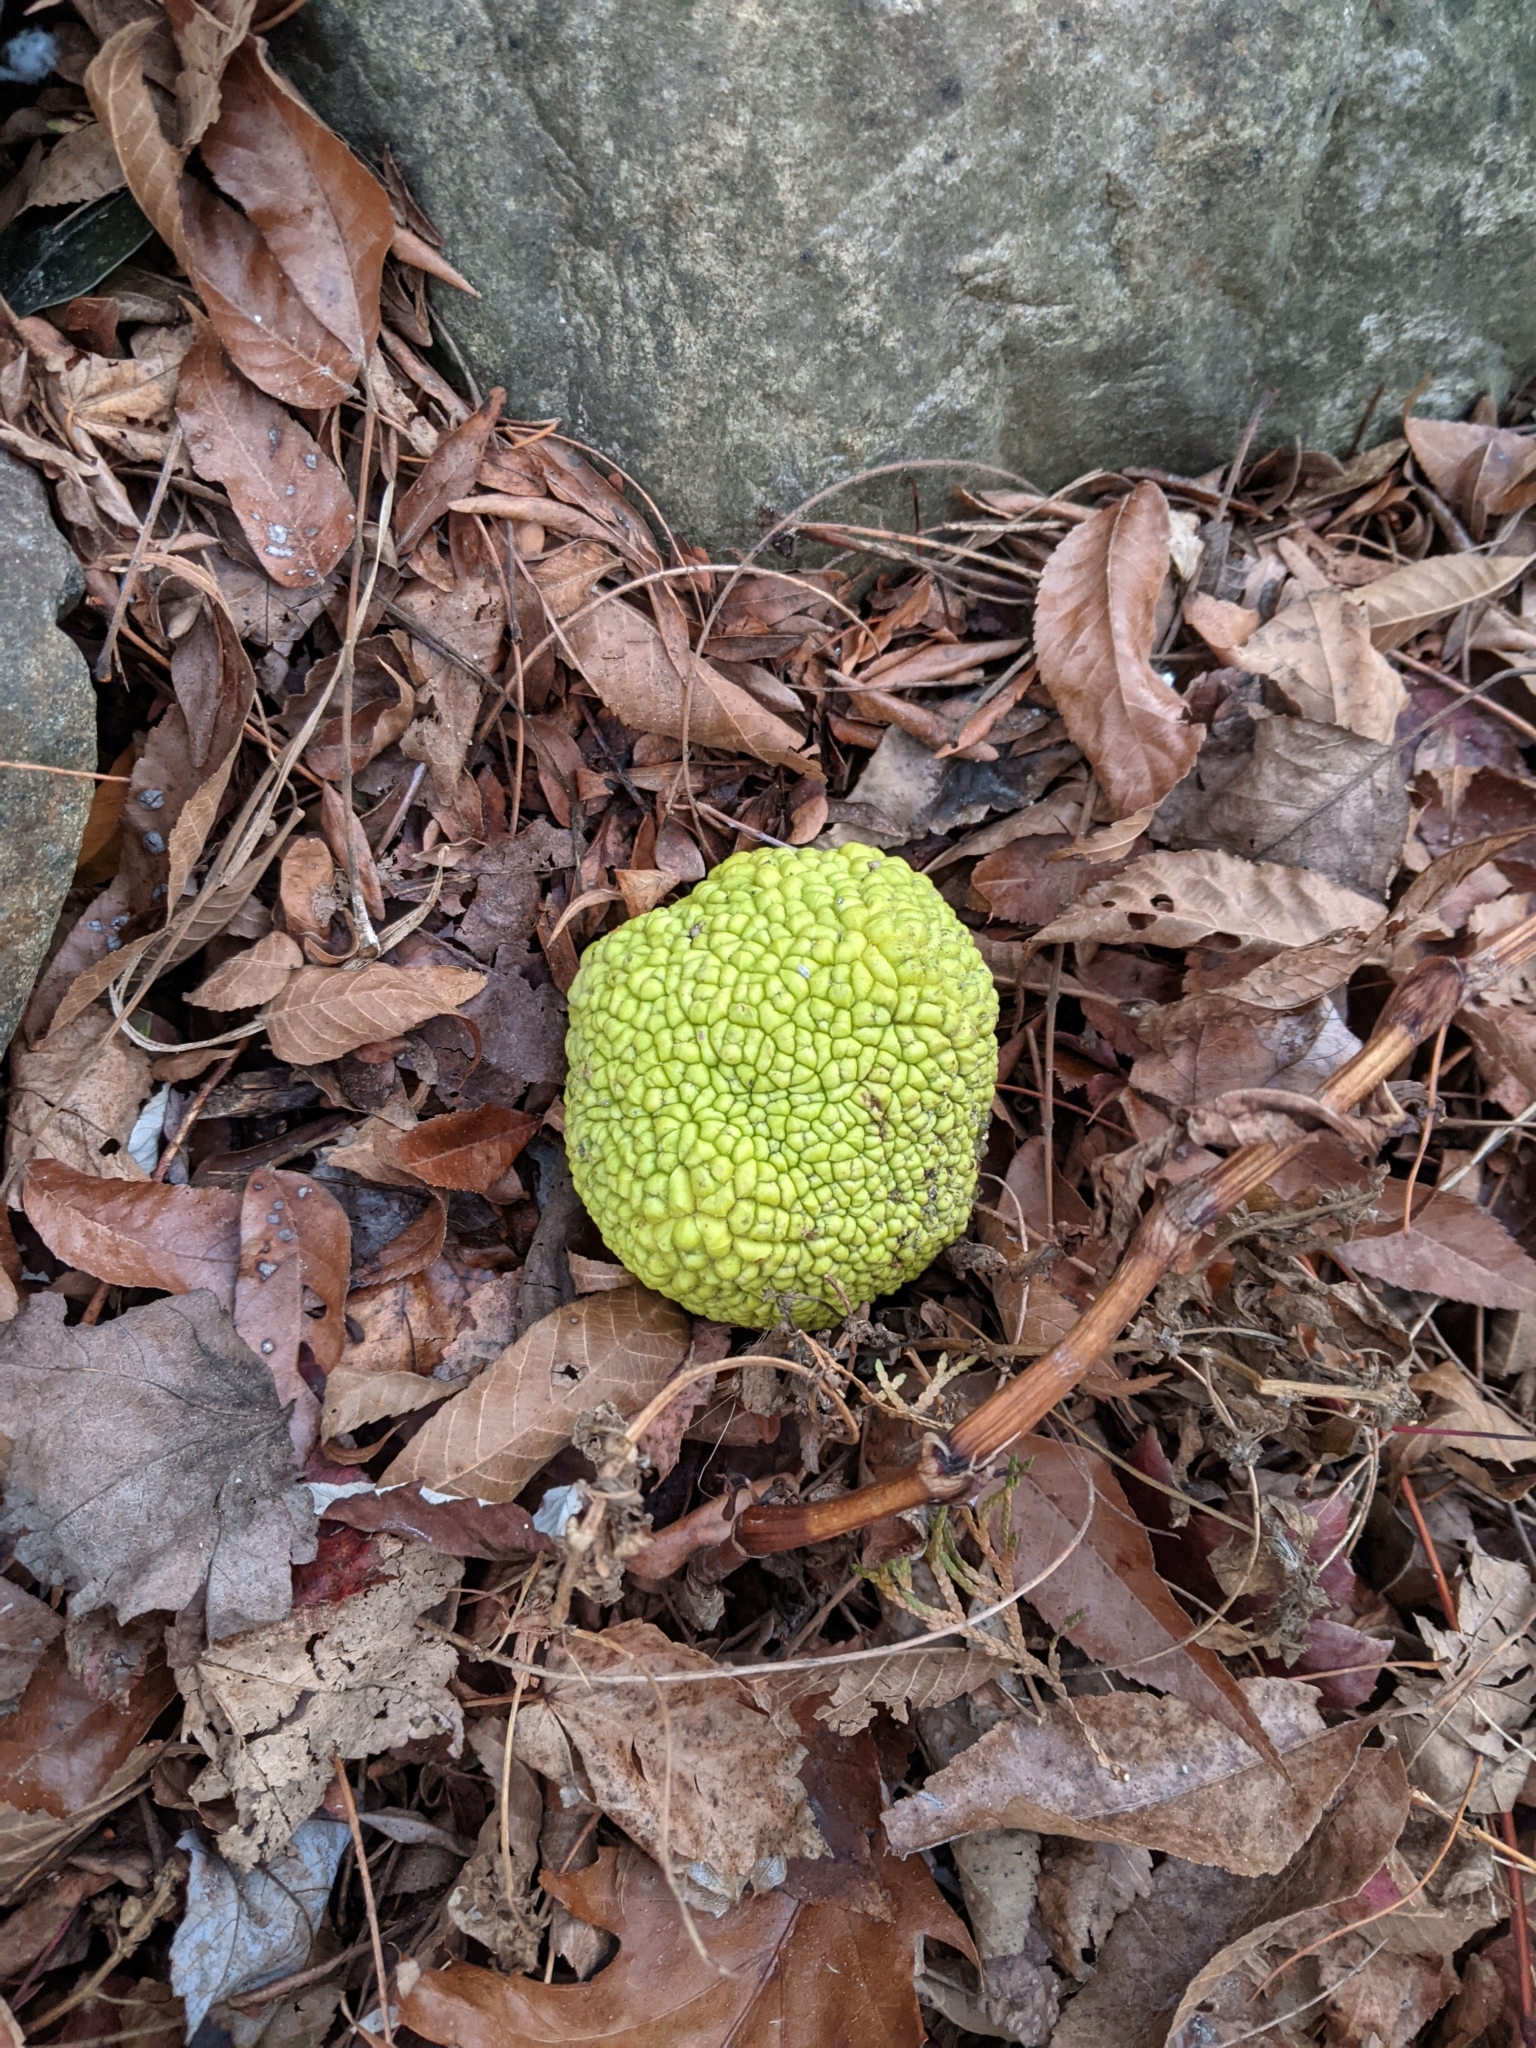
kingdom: Plantae
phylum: Tracheophyta
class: Magnoliopsida
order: Rosales
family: Moraceae
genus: Maclura
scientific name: Maclura pomifera
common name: Osage-orange
